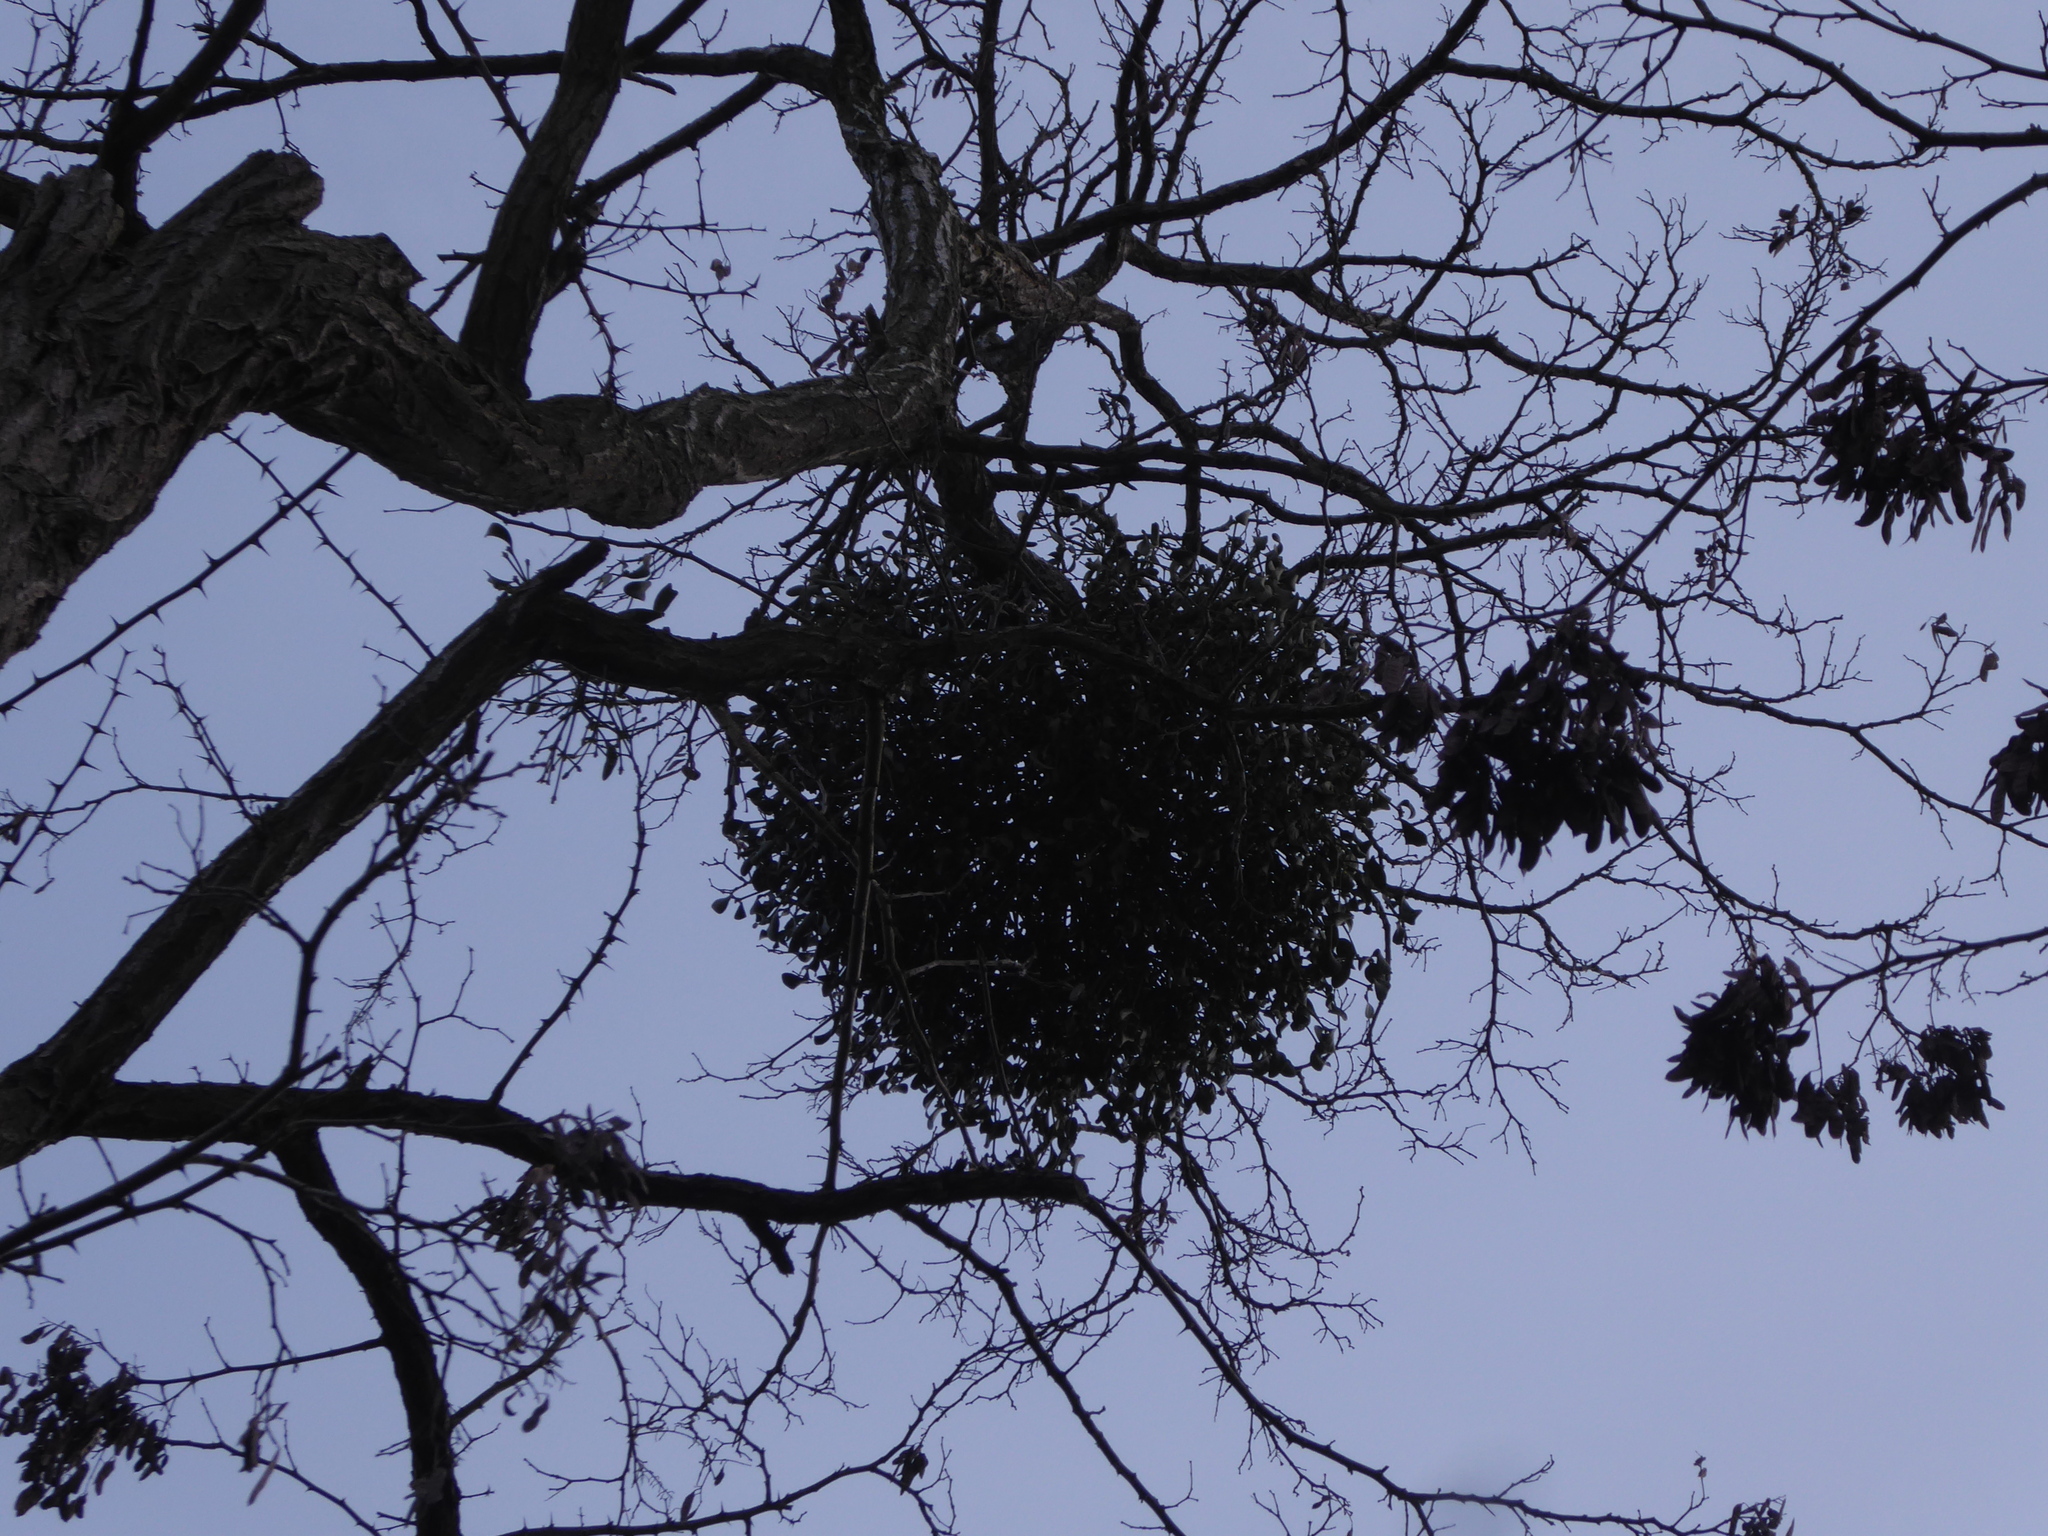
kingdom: Plantae
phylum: Tracheophyta
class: Magnoliopsida
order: Santalales
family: Viscaceae
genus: Viscum
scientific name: Viscum album
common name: Mistletoe
